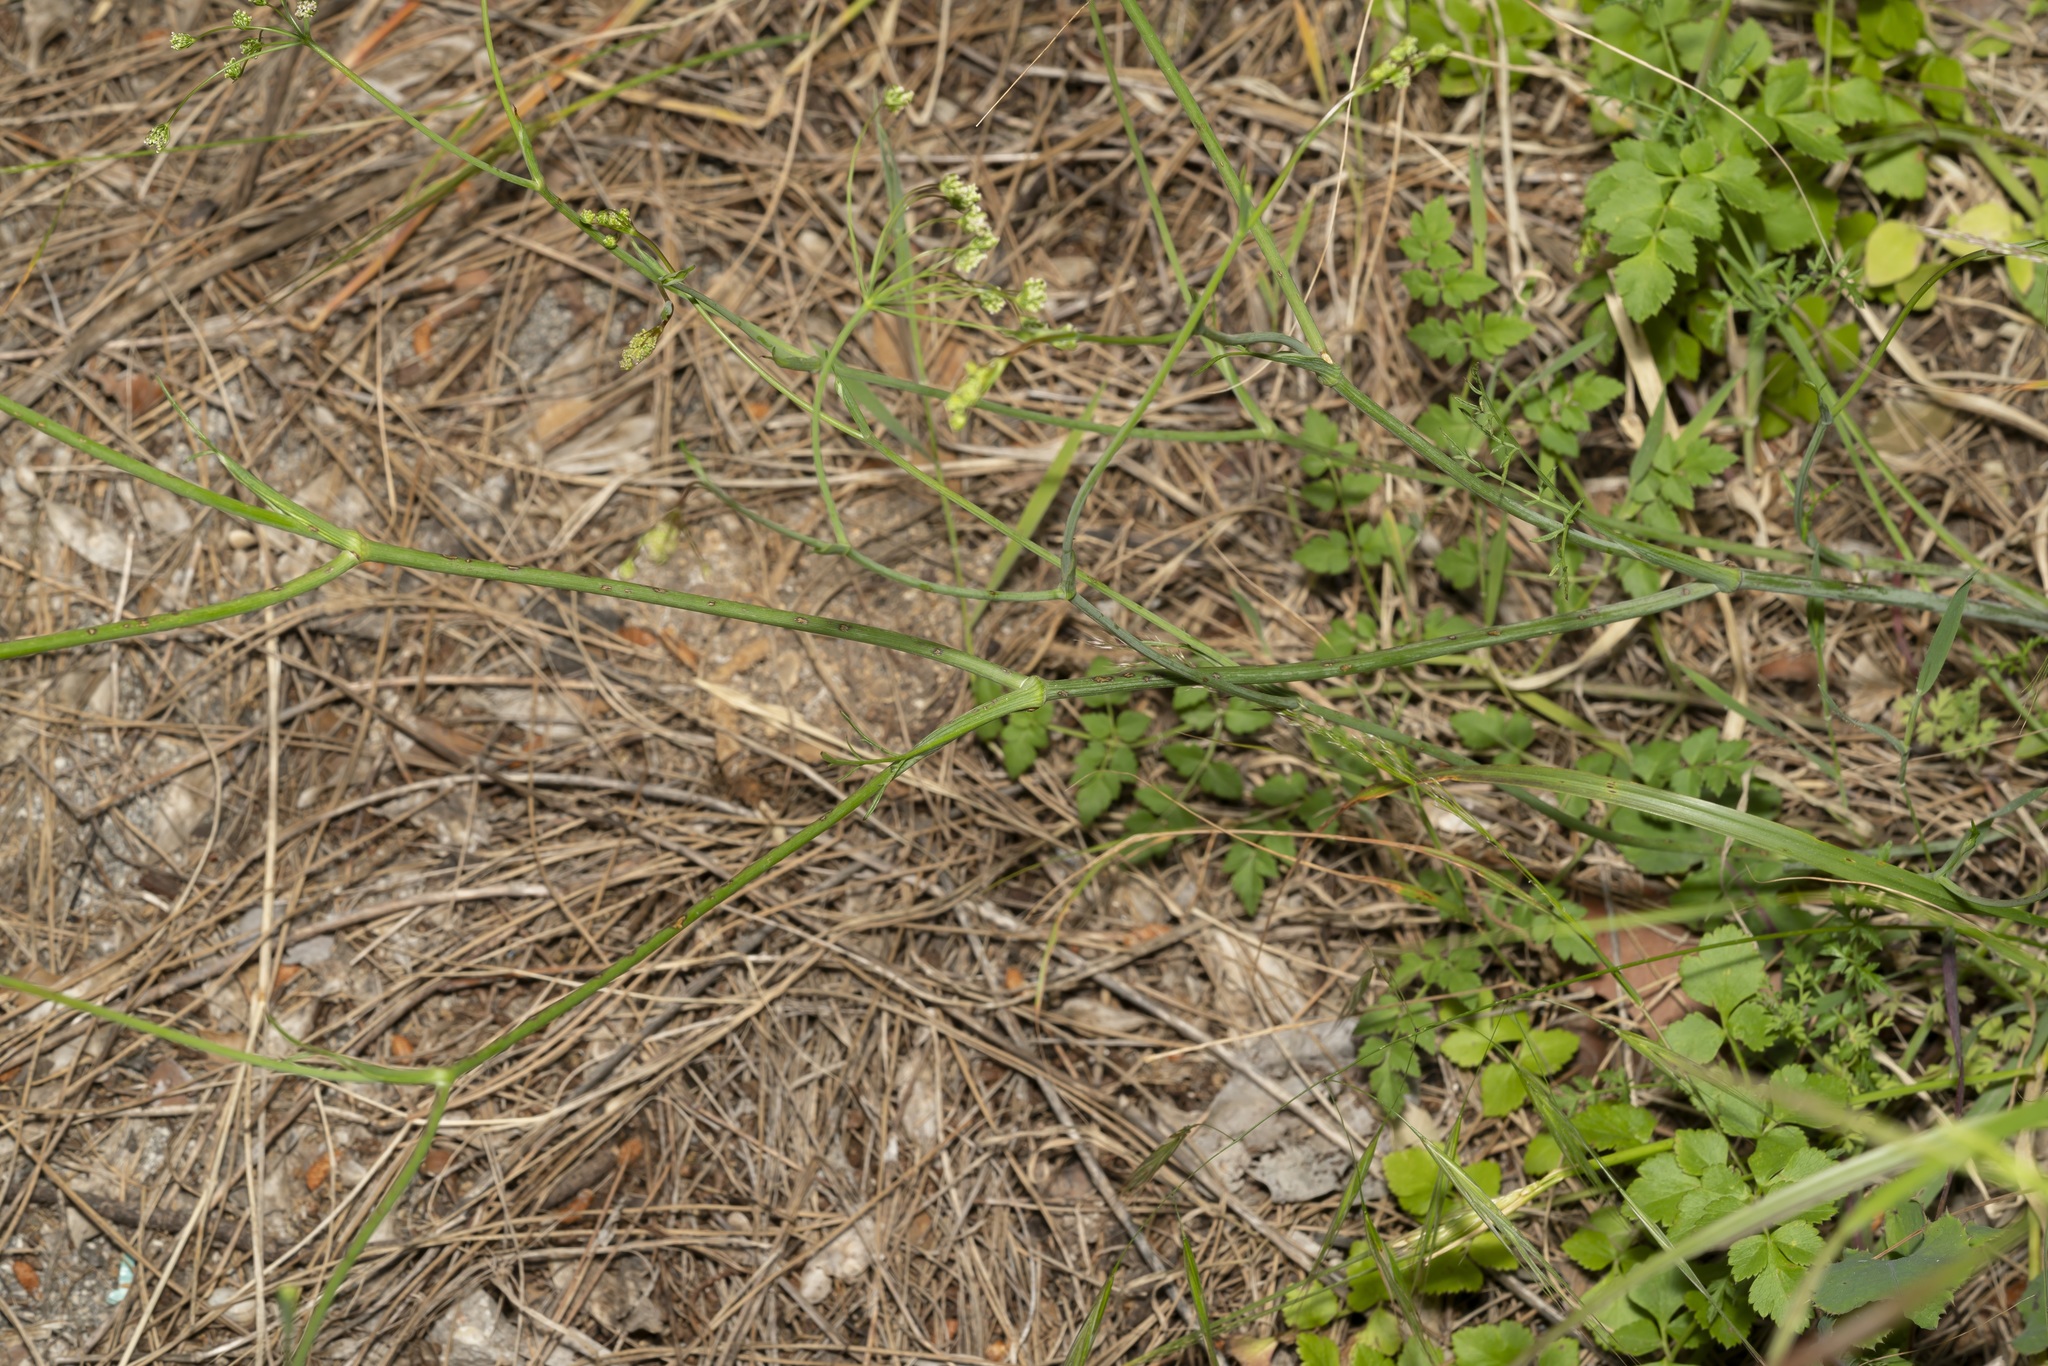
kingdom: Plantae
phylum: Tracheophyta
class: Magnoliopsida
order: Apiales
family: Apiaceae
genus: Scaligeria
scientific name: Scaligeria napiformis
